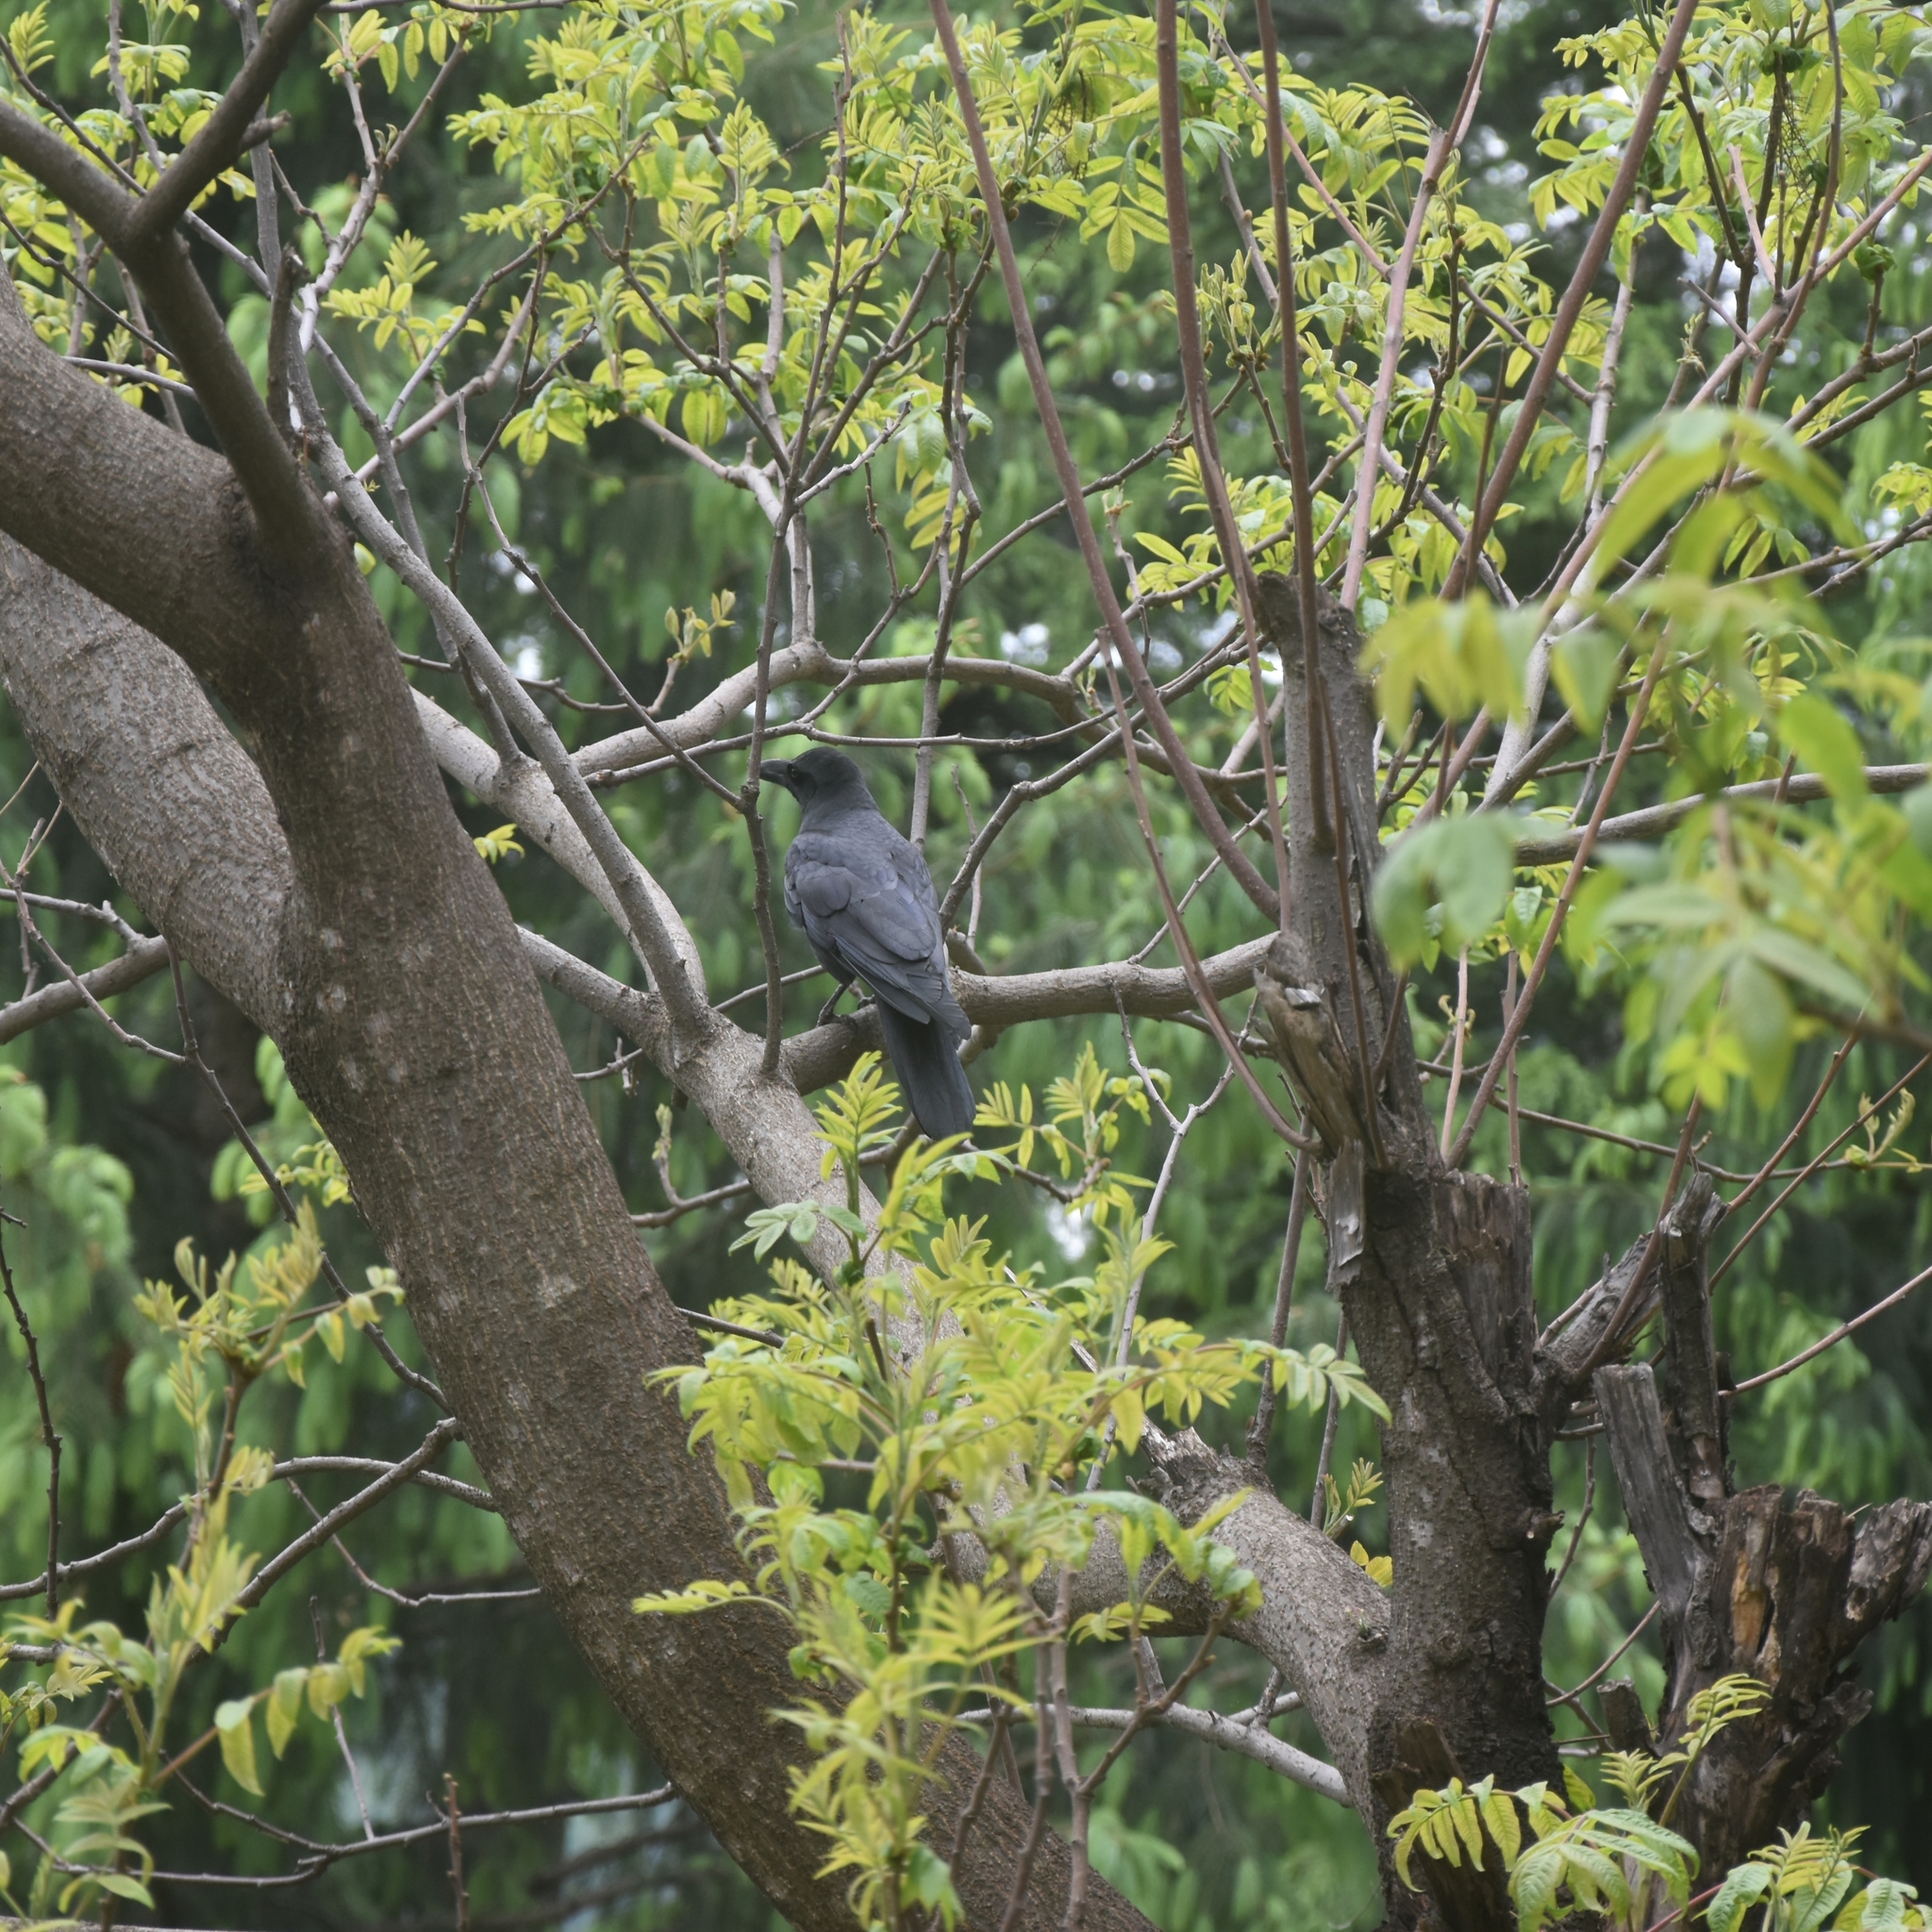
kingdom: Animalia
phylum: Chordata
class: Aves
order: Passeriformes
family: Corvidae
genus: Corvus
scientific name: Corvus macrorhynchos
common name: Large-billed crow
